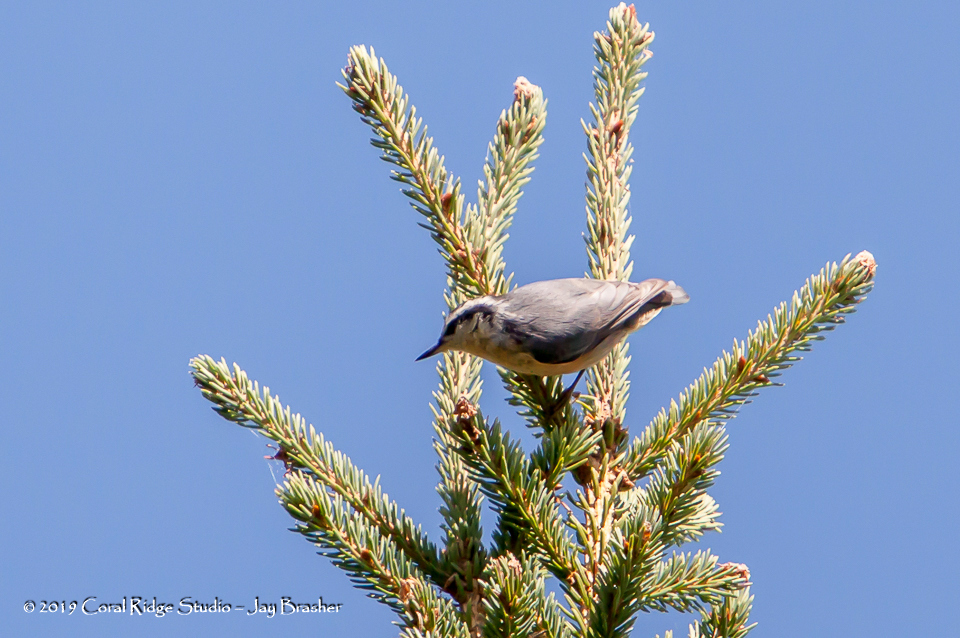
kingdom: Animalia
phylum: Chordata
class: Aves
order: Passeriformes
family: Sittidae
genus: Sitta
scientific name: Sitta canadensis
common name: Red-breasted nuthatch
